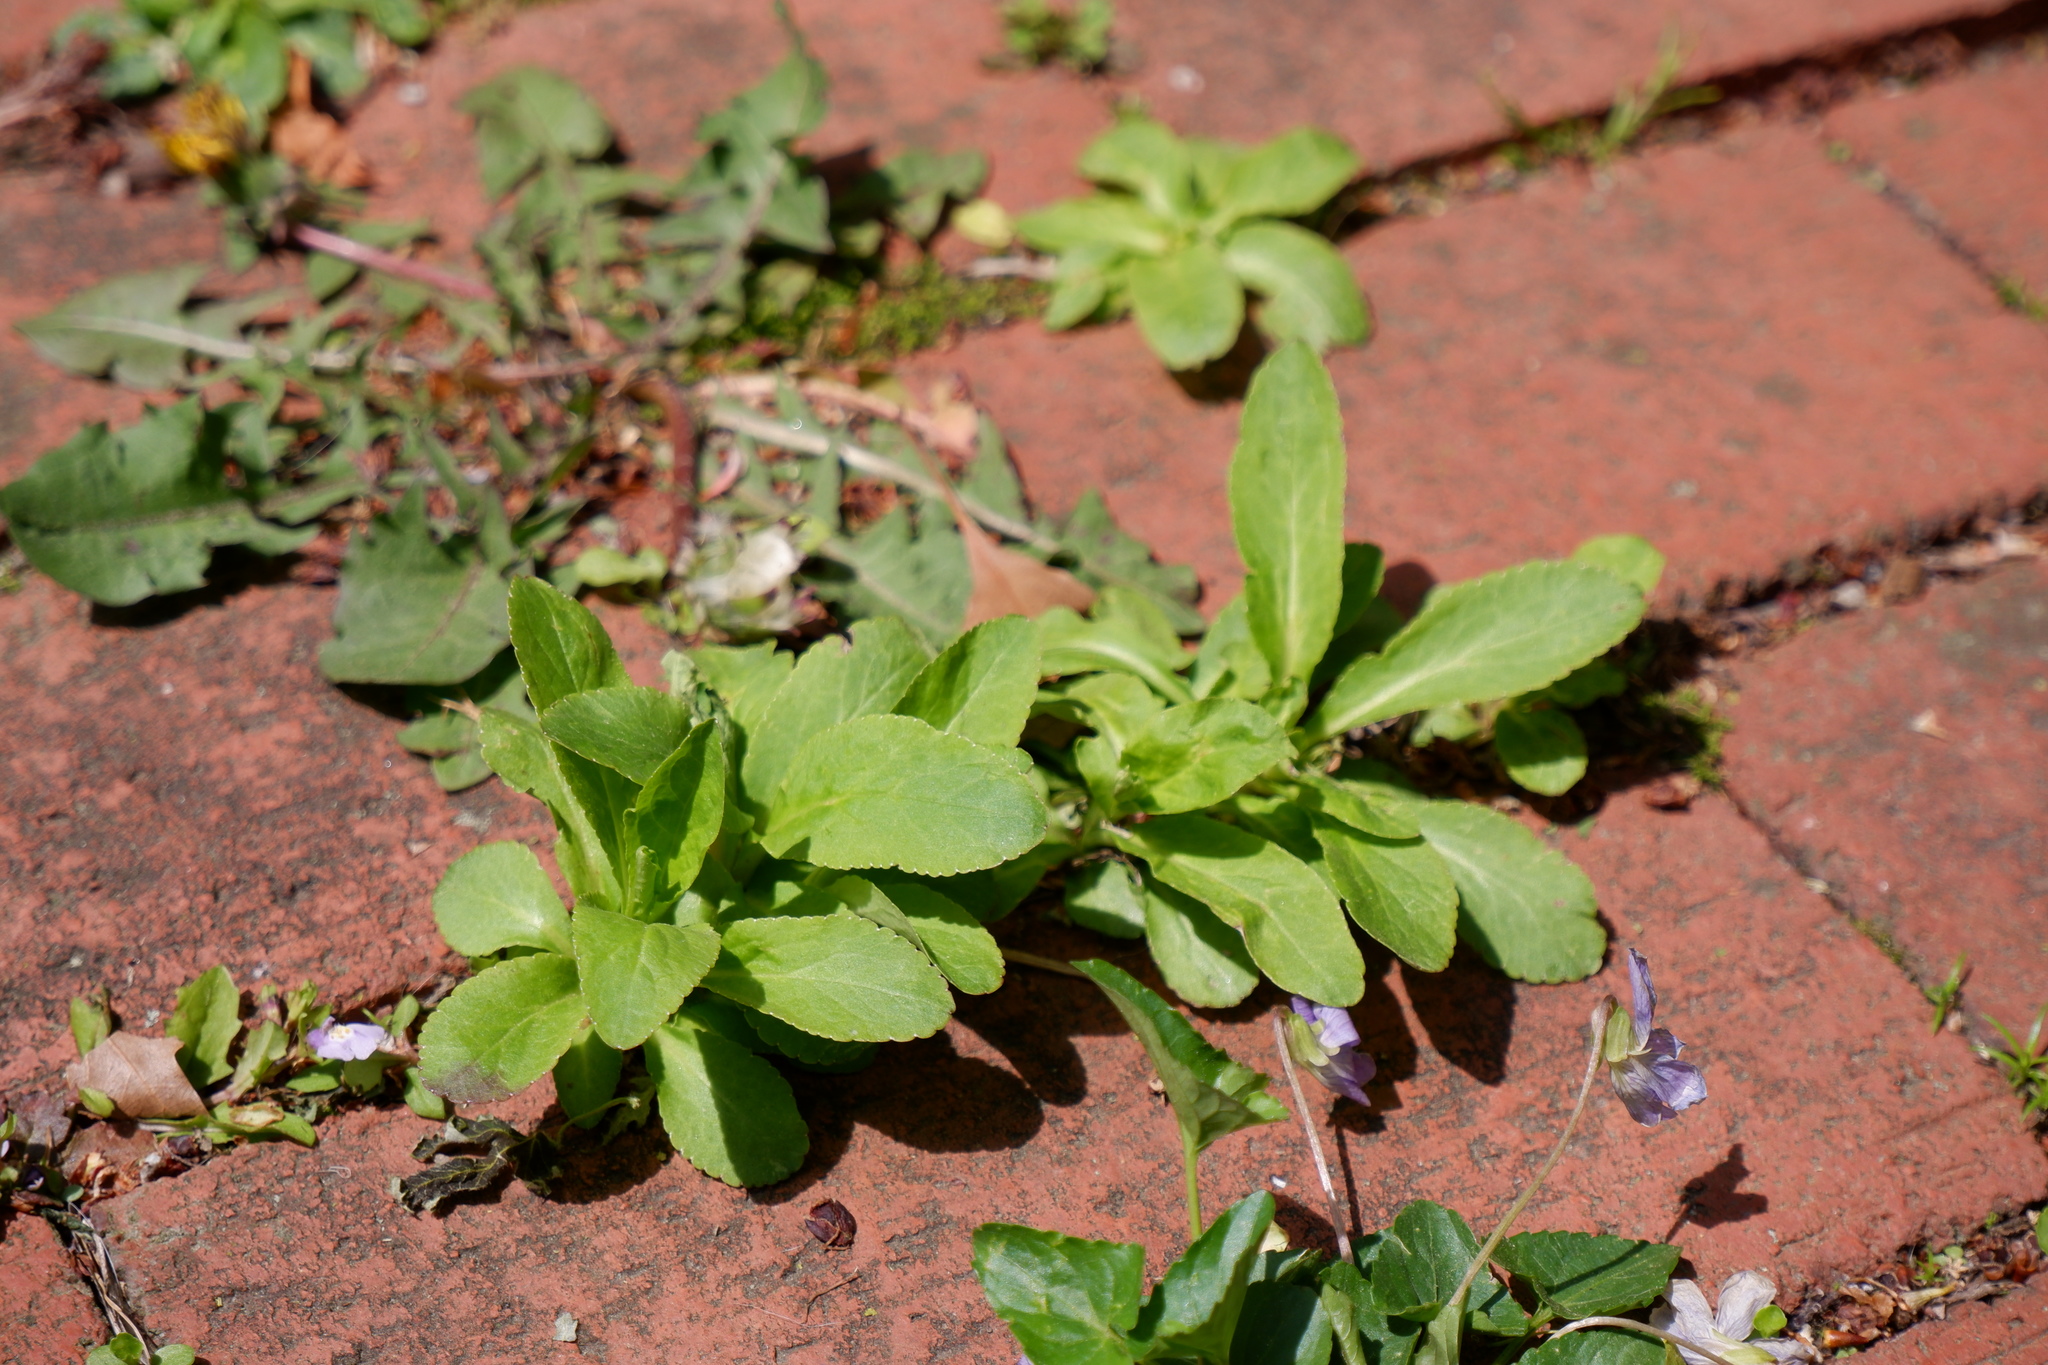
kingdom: Plantae
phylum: Tracheophyta
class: Magnoliopsida
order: Asterales
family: Campanulaceae
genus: Lobelia
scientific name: Lobelia siphilitica
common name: Great lobelia
